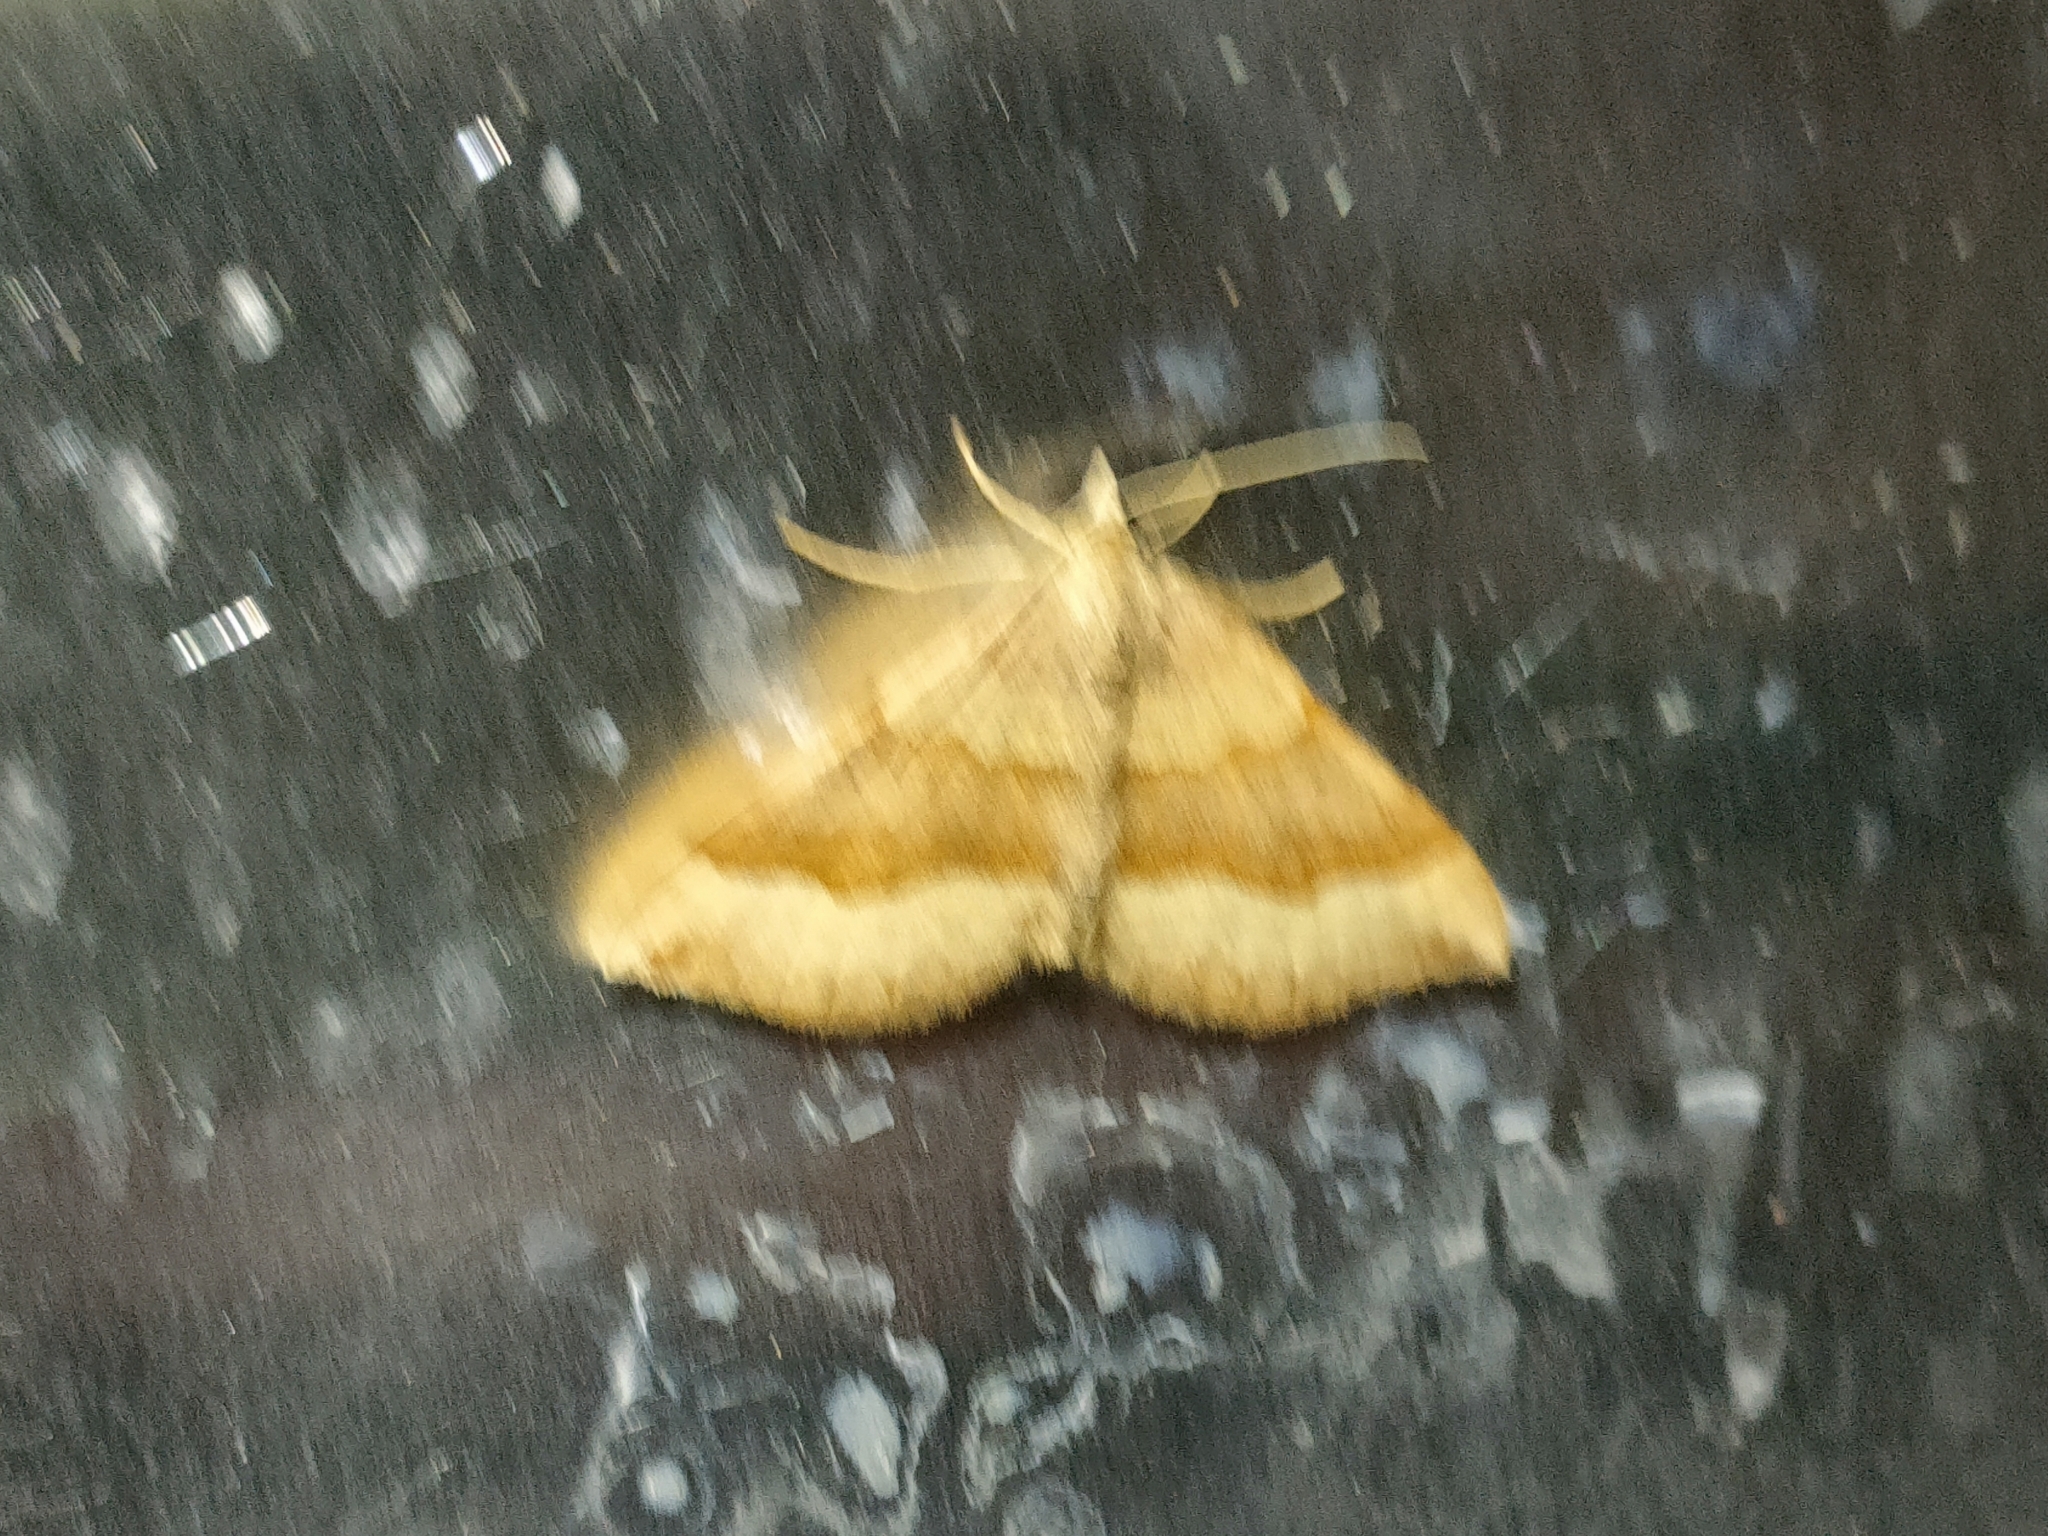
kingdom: Animalia
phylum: Arthropoda
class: Insecta
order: Lepidoptera
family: Geometridae
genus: Scotopteryx
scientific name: Scotopteryx chenopodiata
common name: Shaded broad-bar
